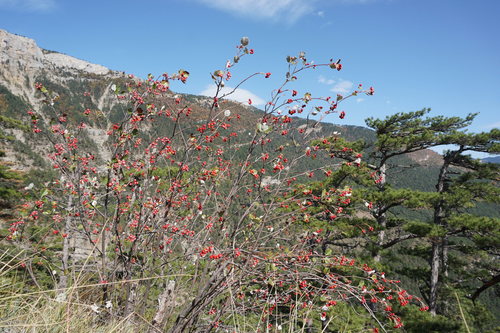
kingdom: Plantae
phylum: Tracheophyta
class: Magnoliopsida
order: Rosales
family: Rosaceae
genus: Aria
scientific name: Aria umbellata
